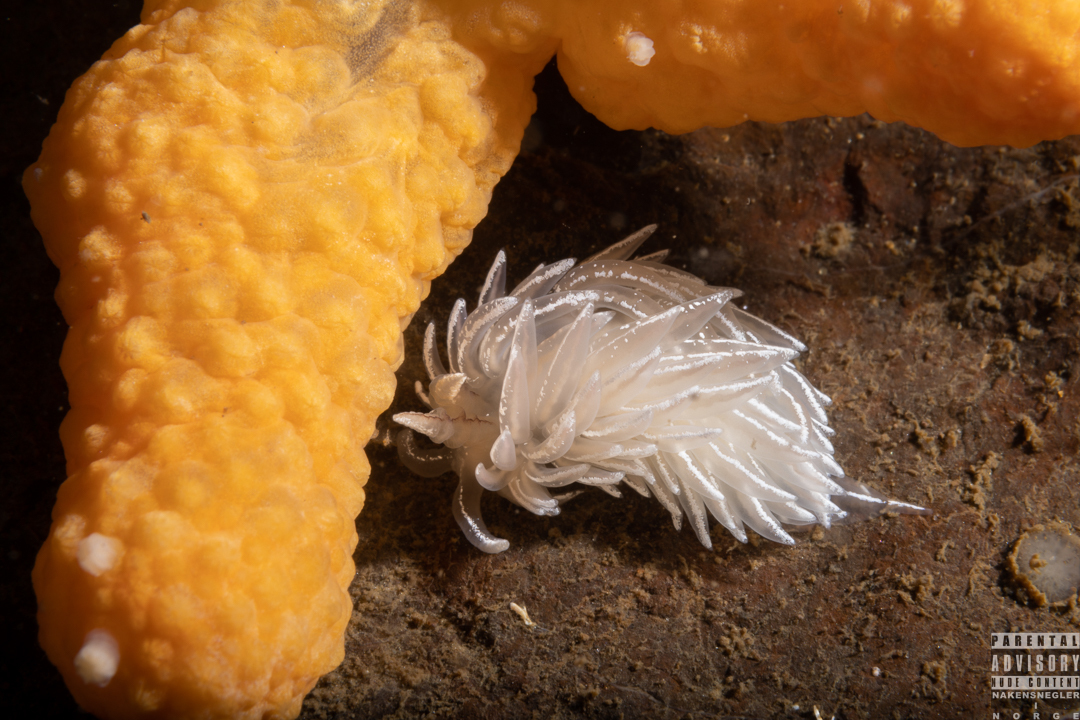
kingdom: Animalia
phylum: Mollusca
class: Gastropoda
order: Nudibranchia
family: Facelinidae
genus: Favorinus
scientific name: Favorinus blianus
